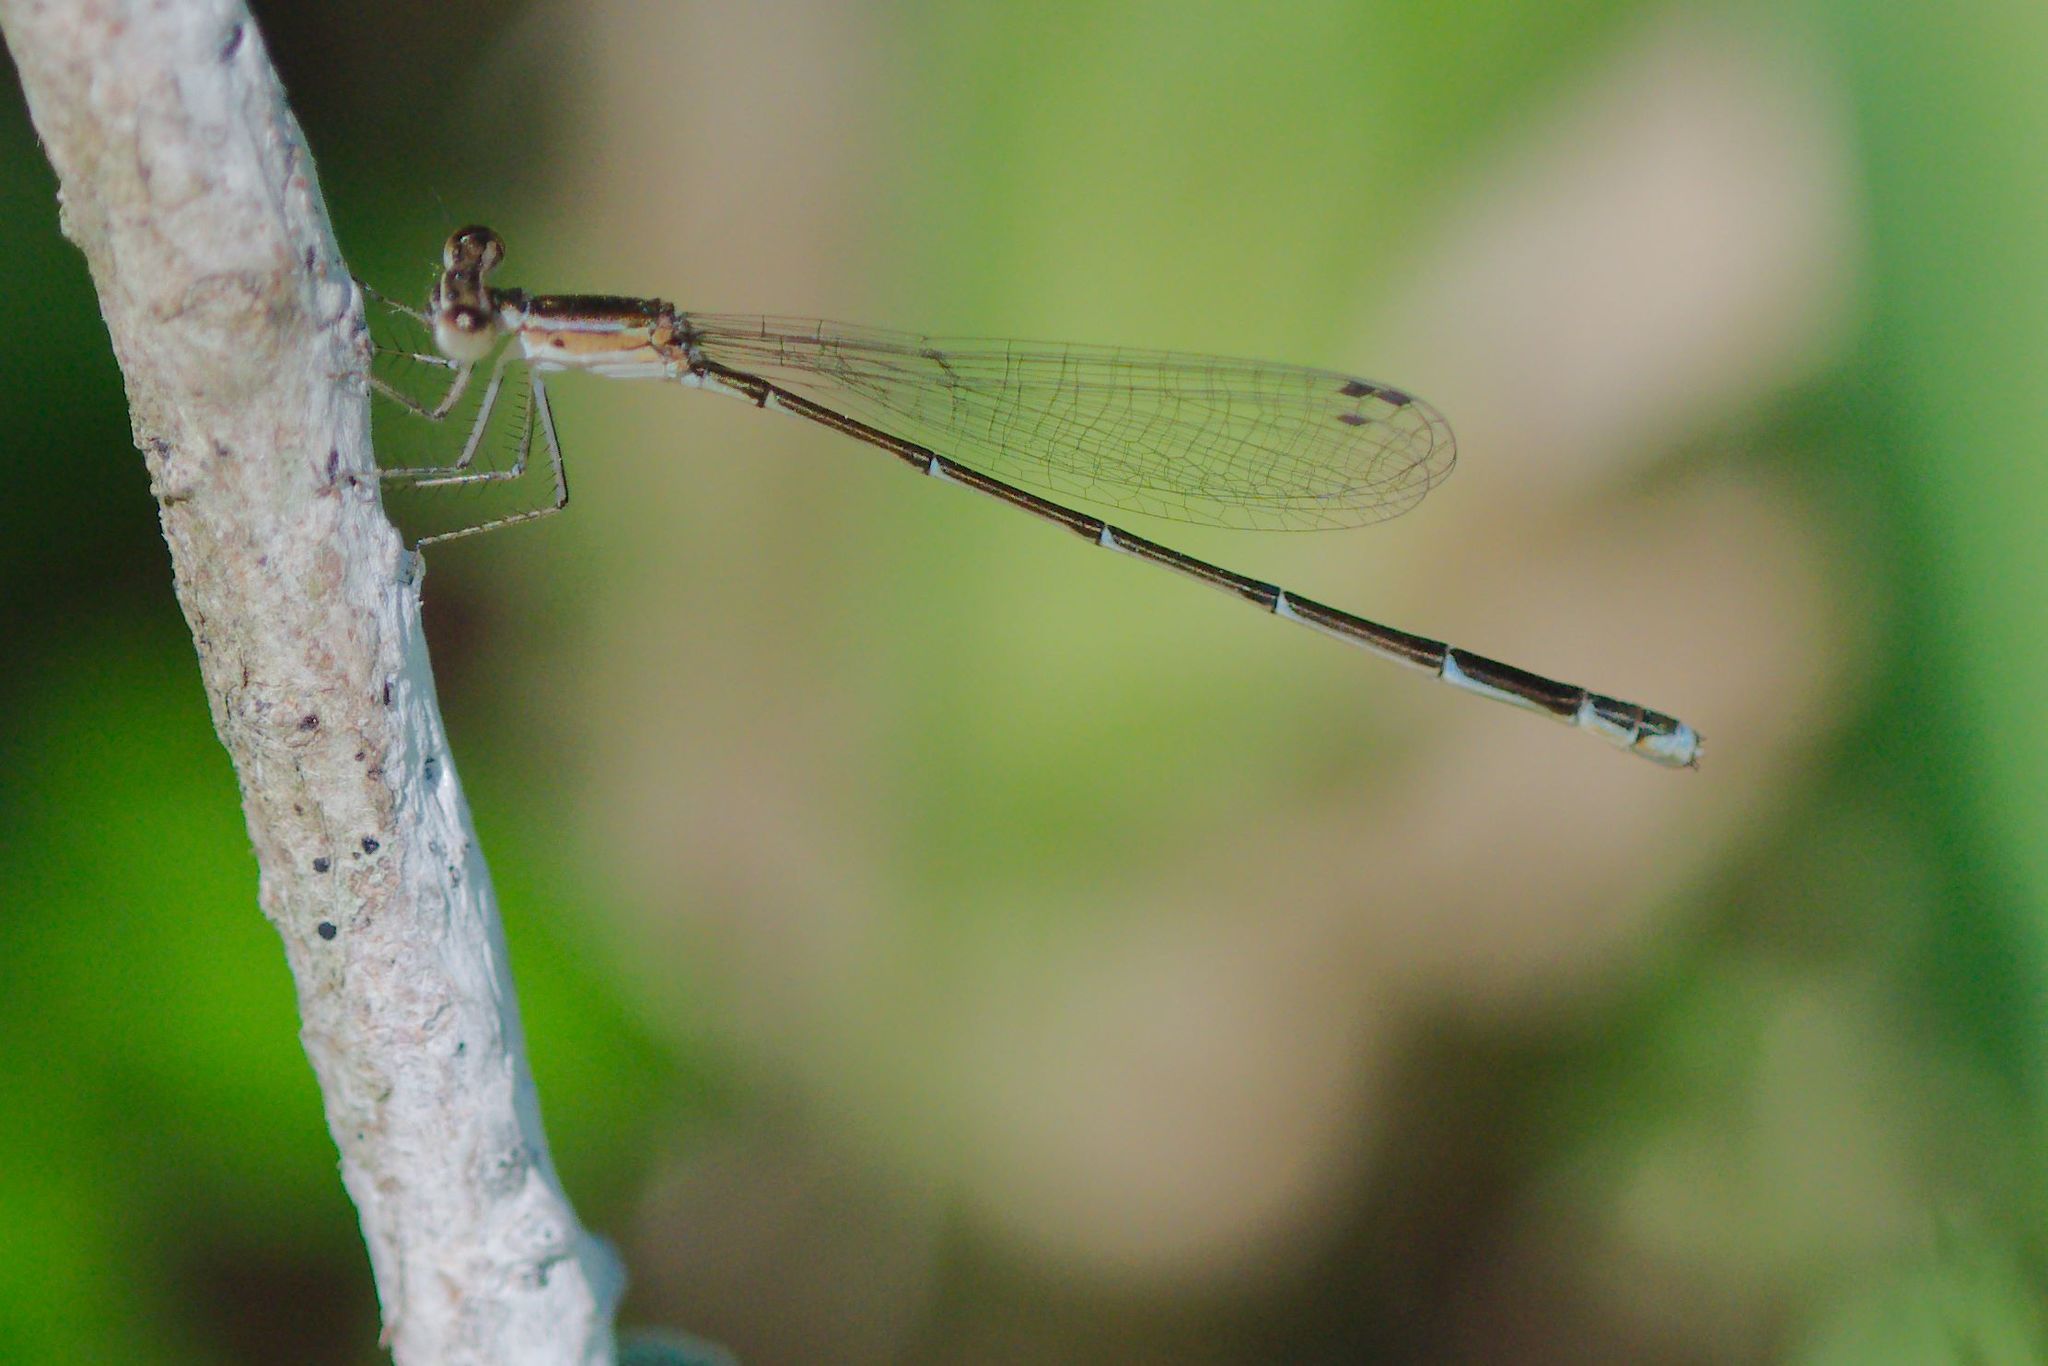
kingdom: Animalia
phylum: Arthropoda
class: Insecta
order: Odonata
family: Coenagrionidae
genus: Nehalennia
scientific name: Nehalennia pallidula
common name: Everglades sprite
